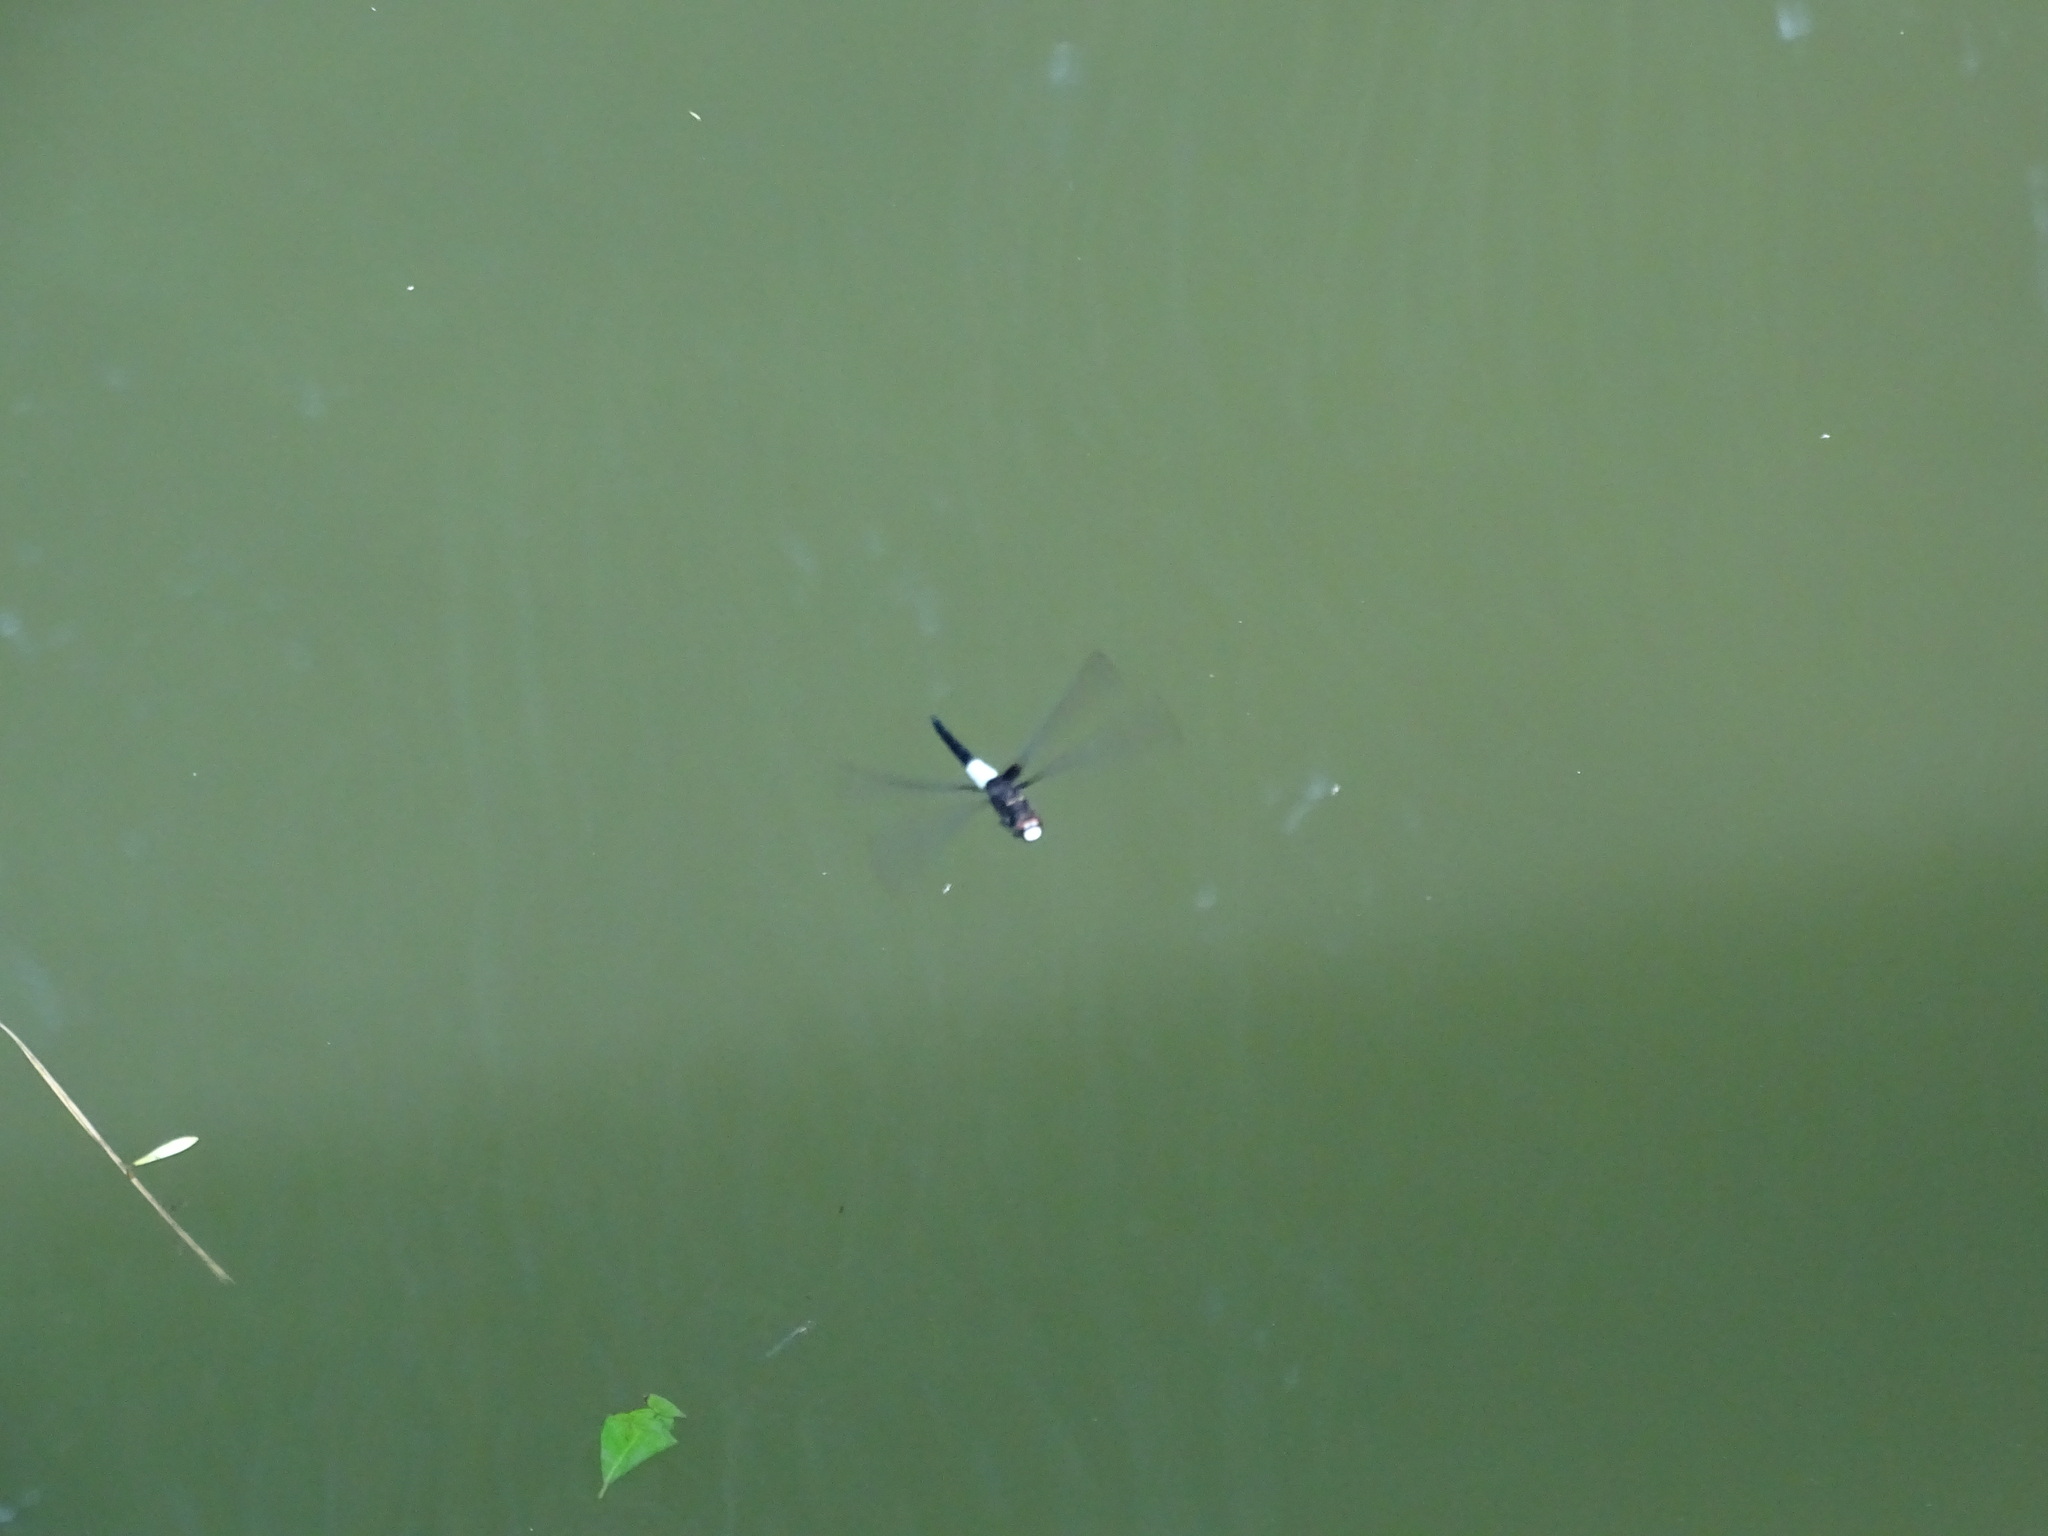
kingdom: Animalia
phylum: Arthropoda
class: Insecta
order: Odonata
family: Libellulidae
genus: Pseudothemis
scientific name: Pseudothemis zonata
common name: Pied skimmer
